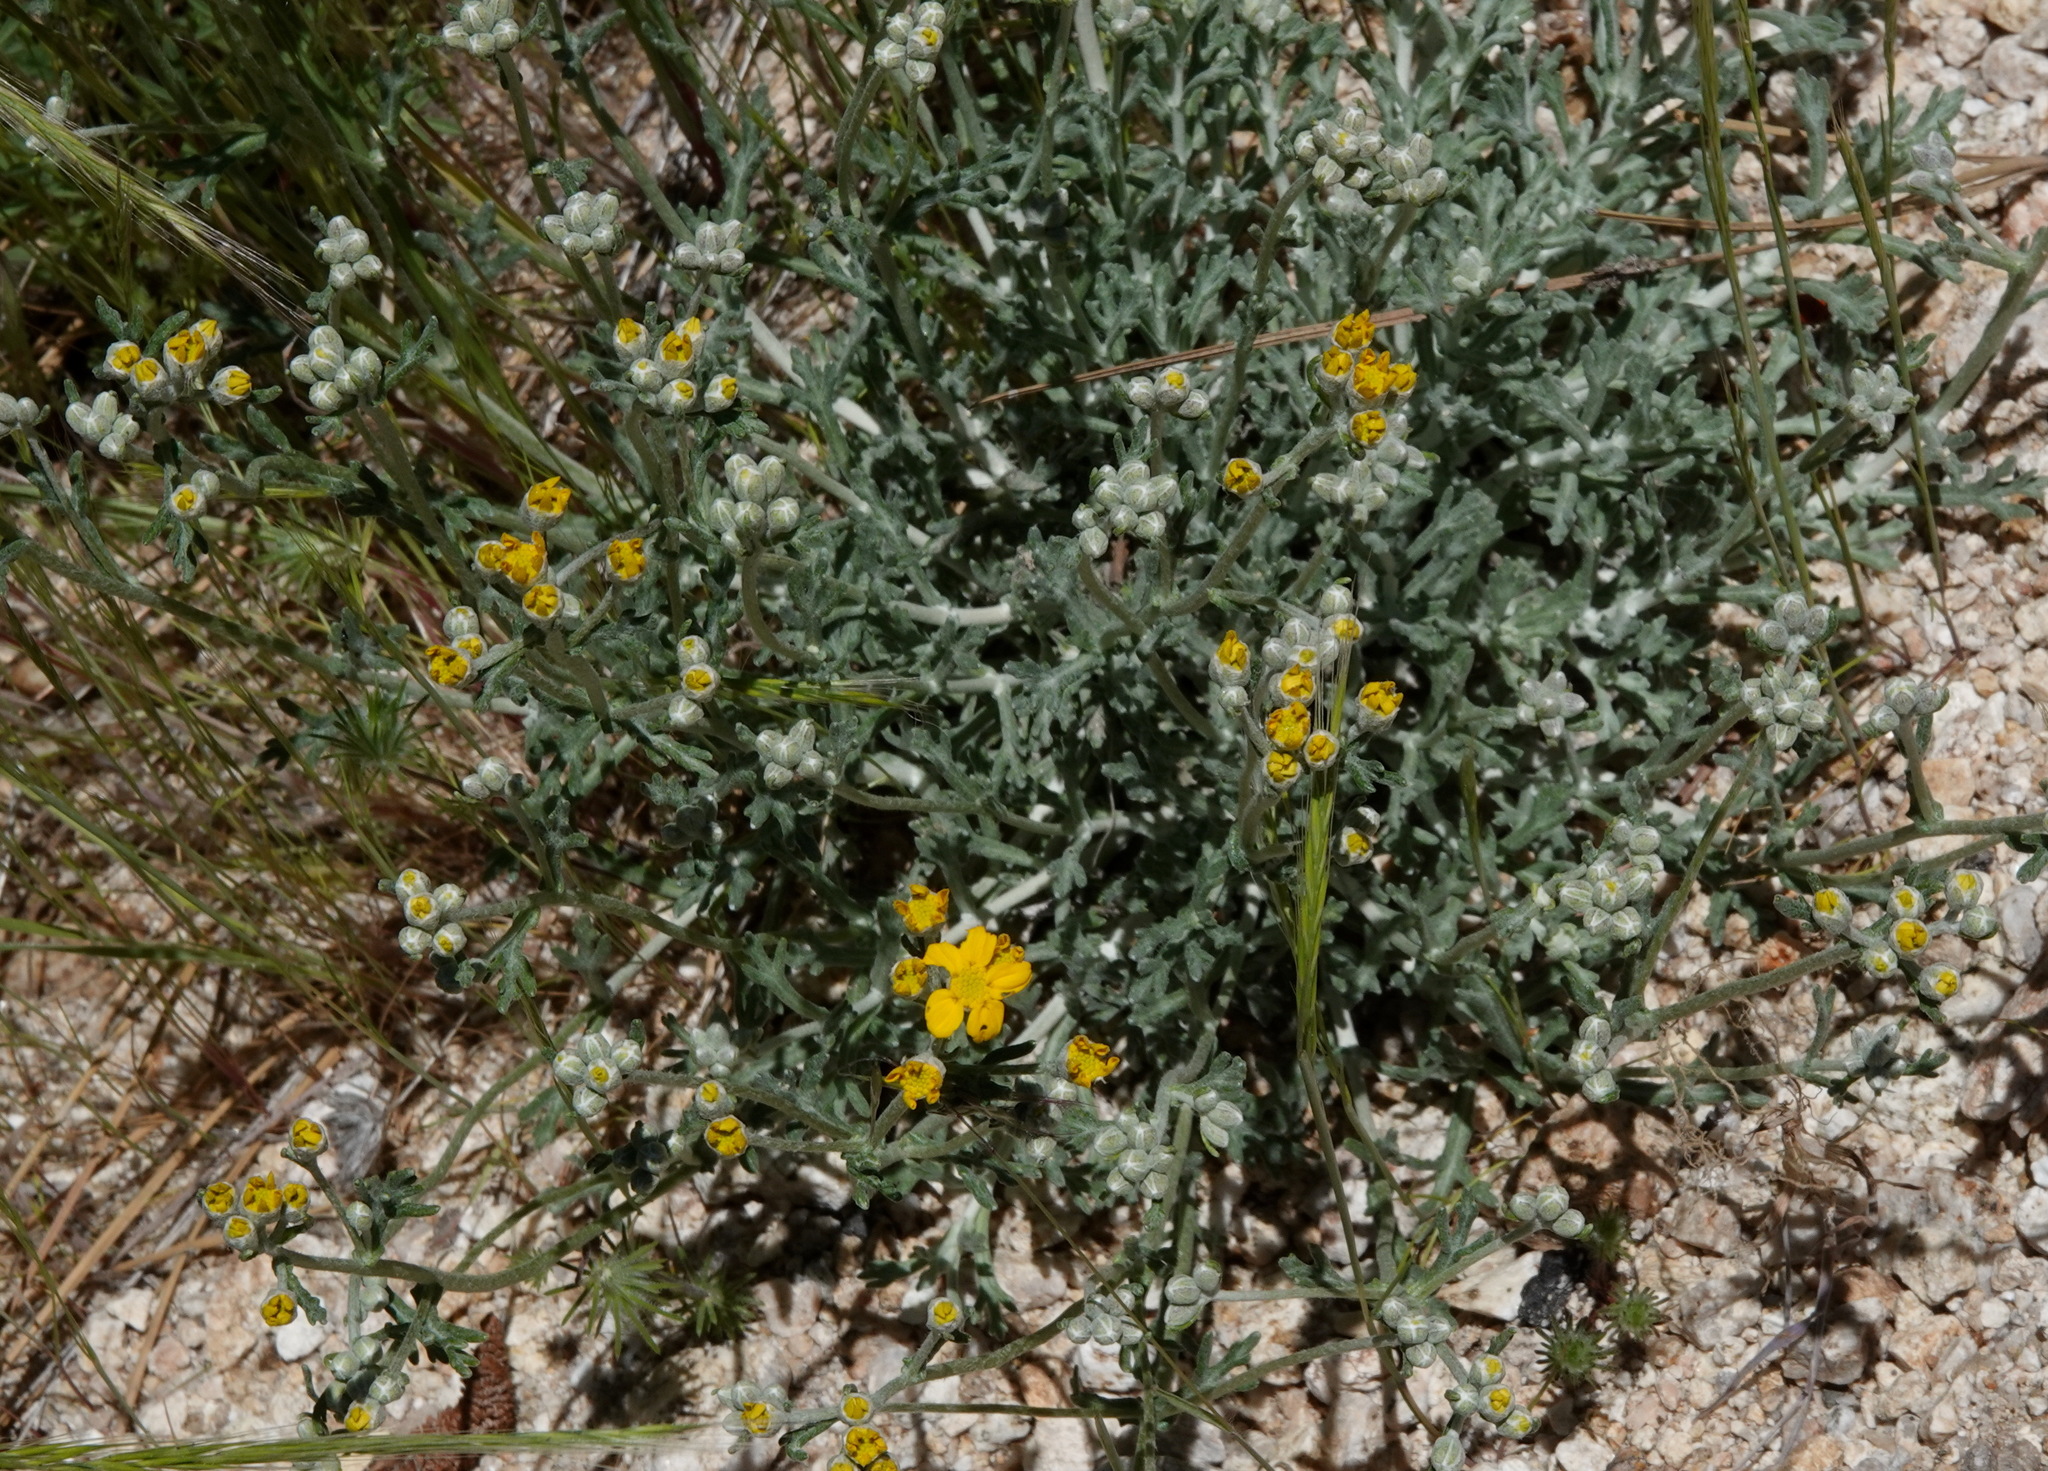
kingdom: Plantae
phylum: Tracheophyta
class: Magnoliopsida
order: Asterales
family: Asteraceae
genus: Eriophyllum
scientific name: Eriophyllum confertiflorum
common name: Golden-yarrow
